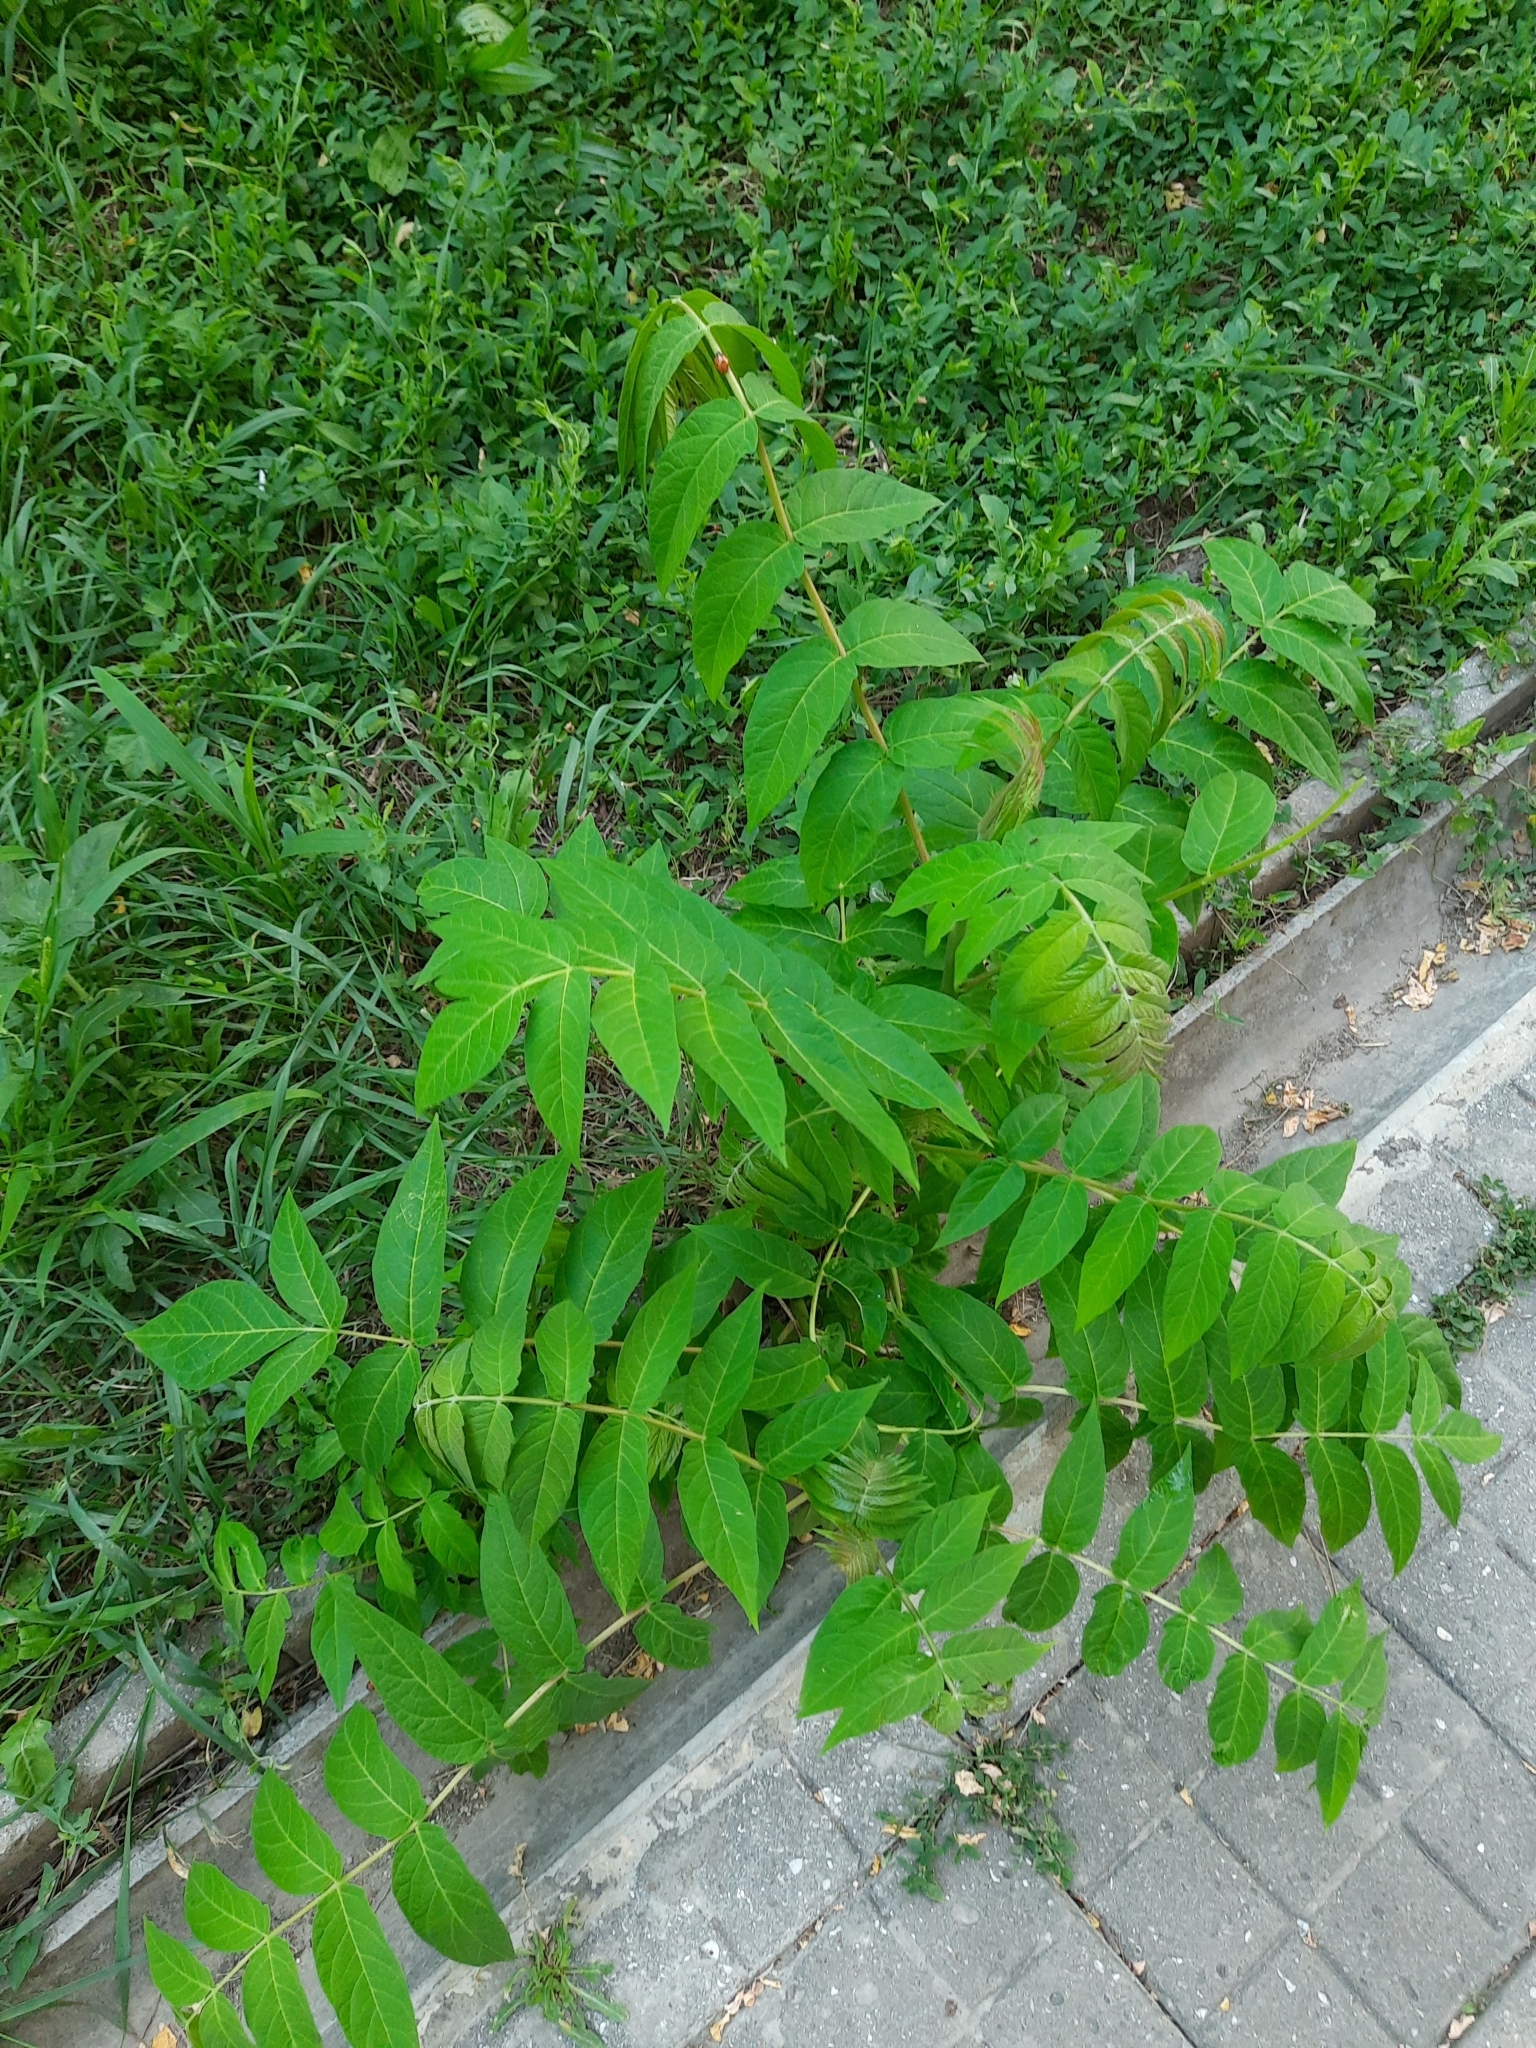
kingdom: Plantae
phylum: Tracheophyta
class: Magnoliopsida
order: Sapindales
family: Simaroubaceae
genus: Ailanthus
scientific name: Ailanthus altissima
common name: Tree-of-heaven
